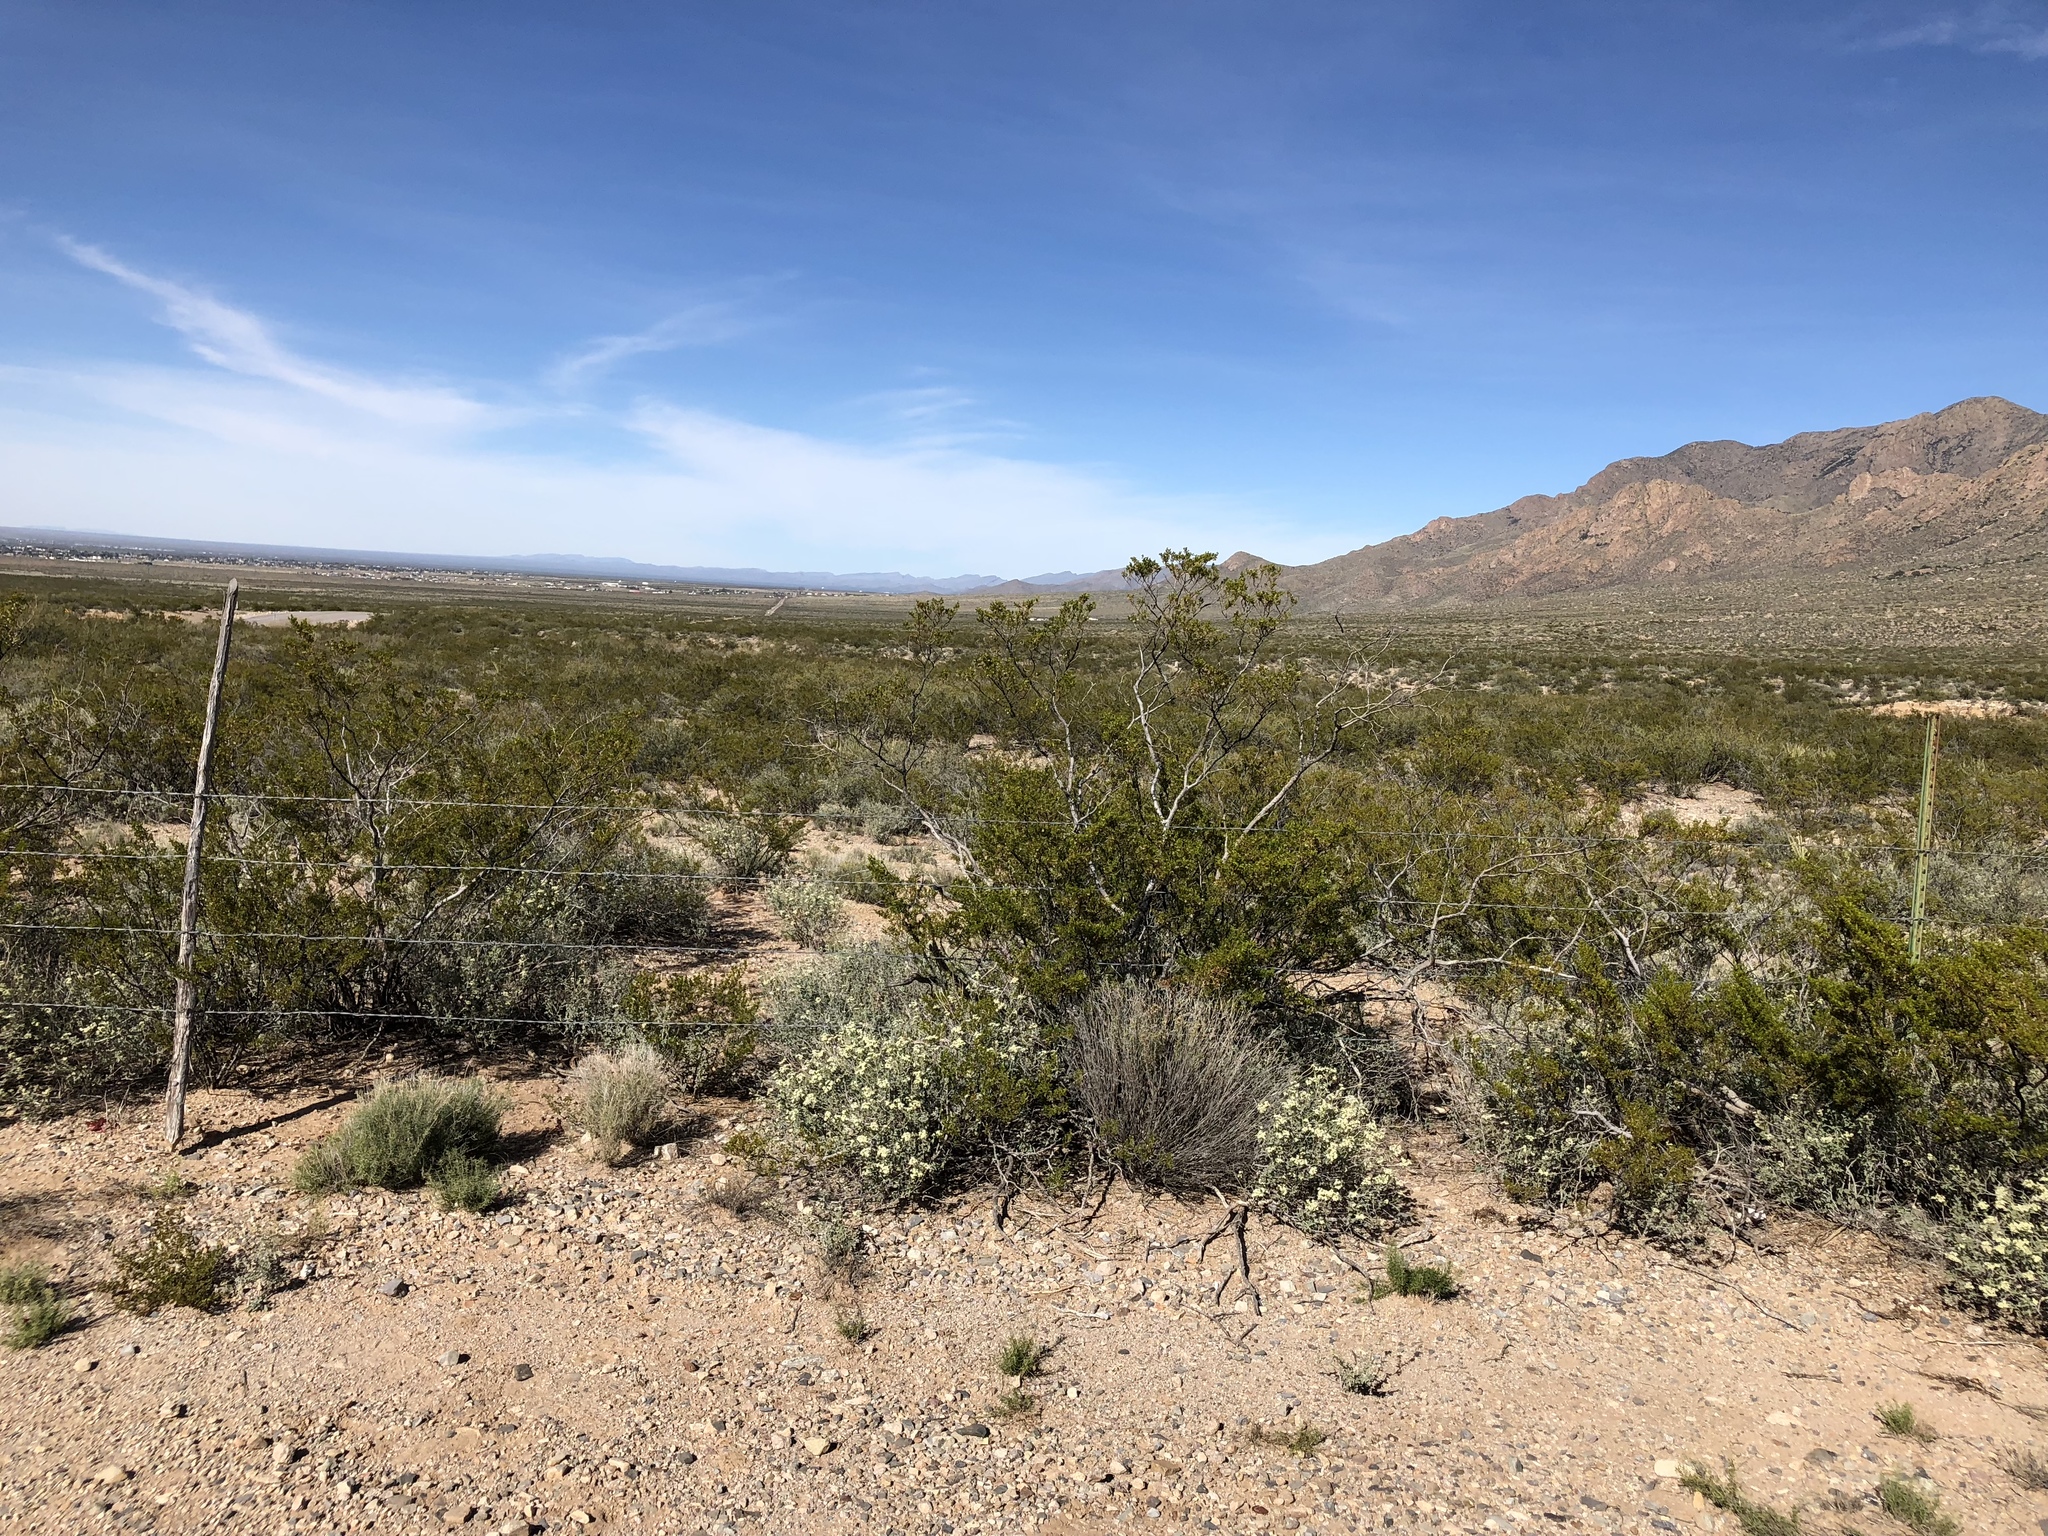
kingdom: Plantae
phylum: Tracheophyta
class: Magnoliopsida
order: Zygophyllales
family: Zygophyllaceae
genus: Larrea
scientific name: Larrea tridentata
